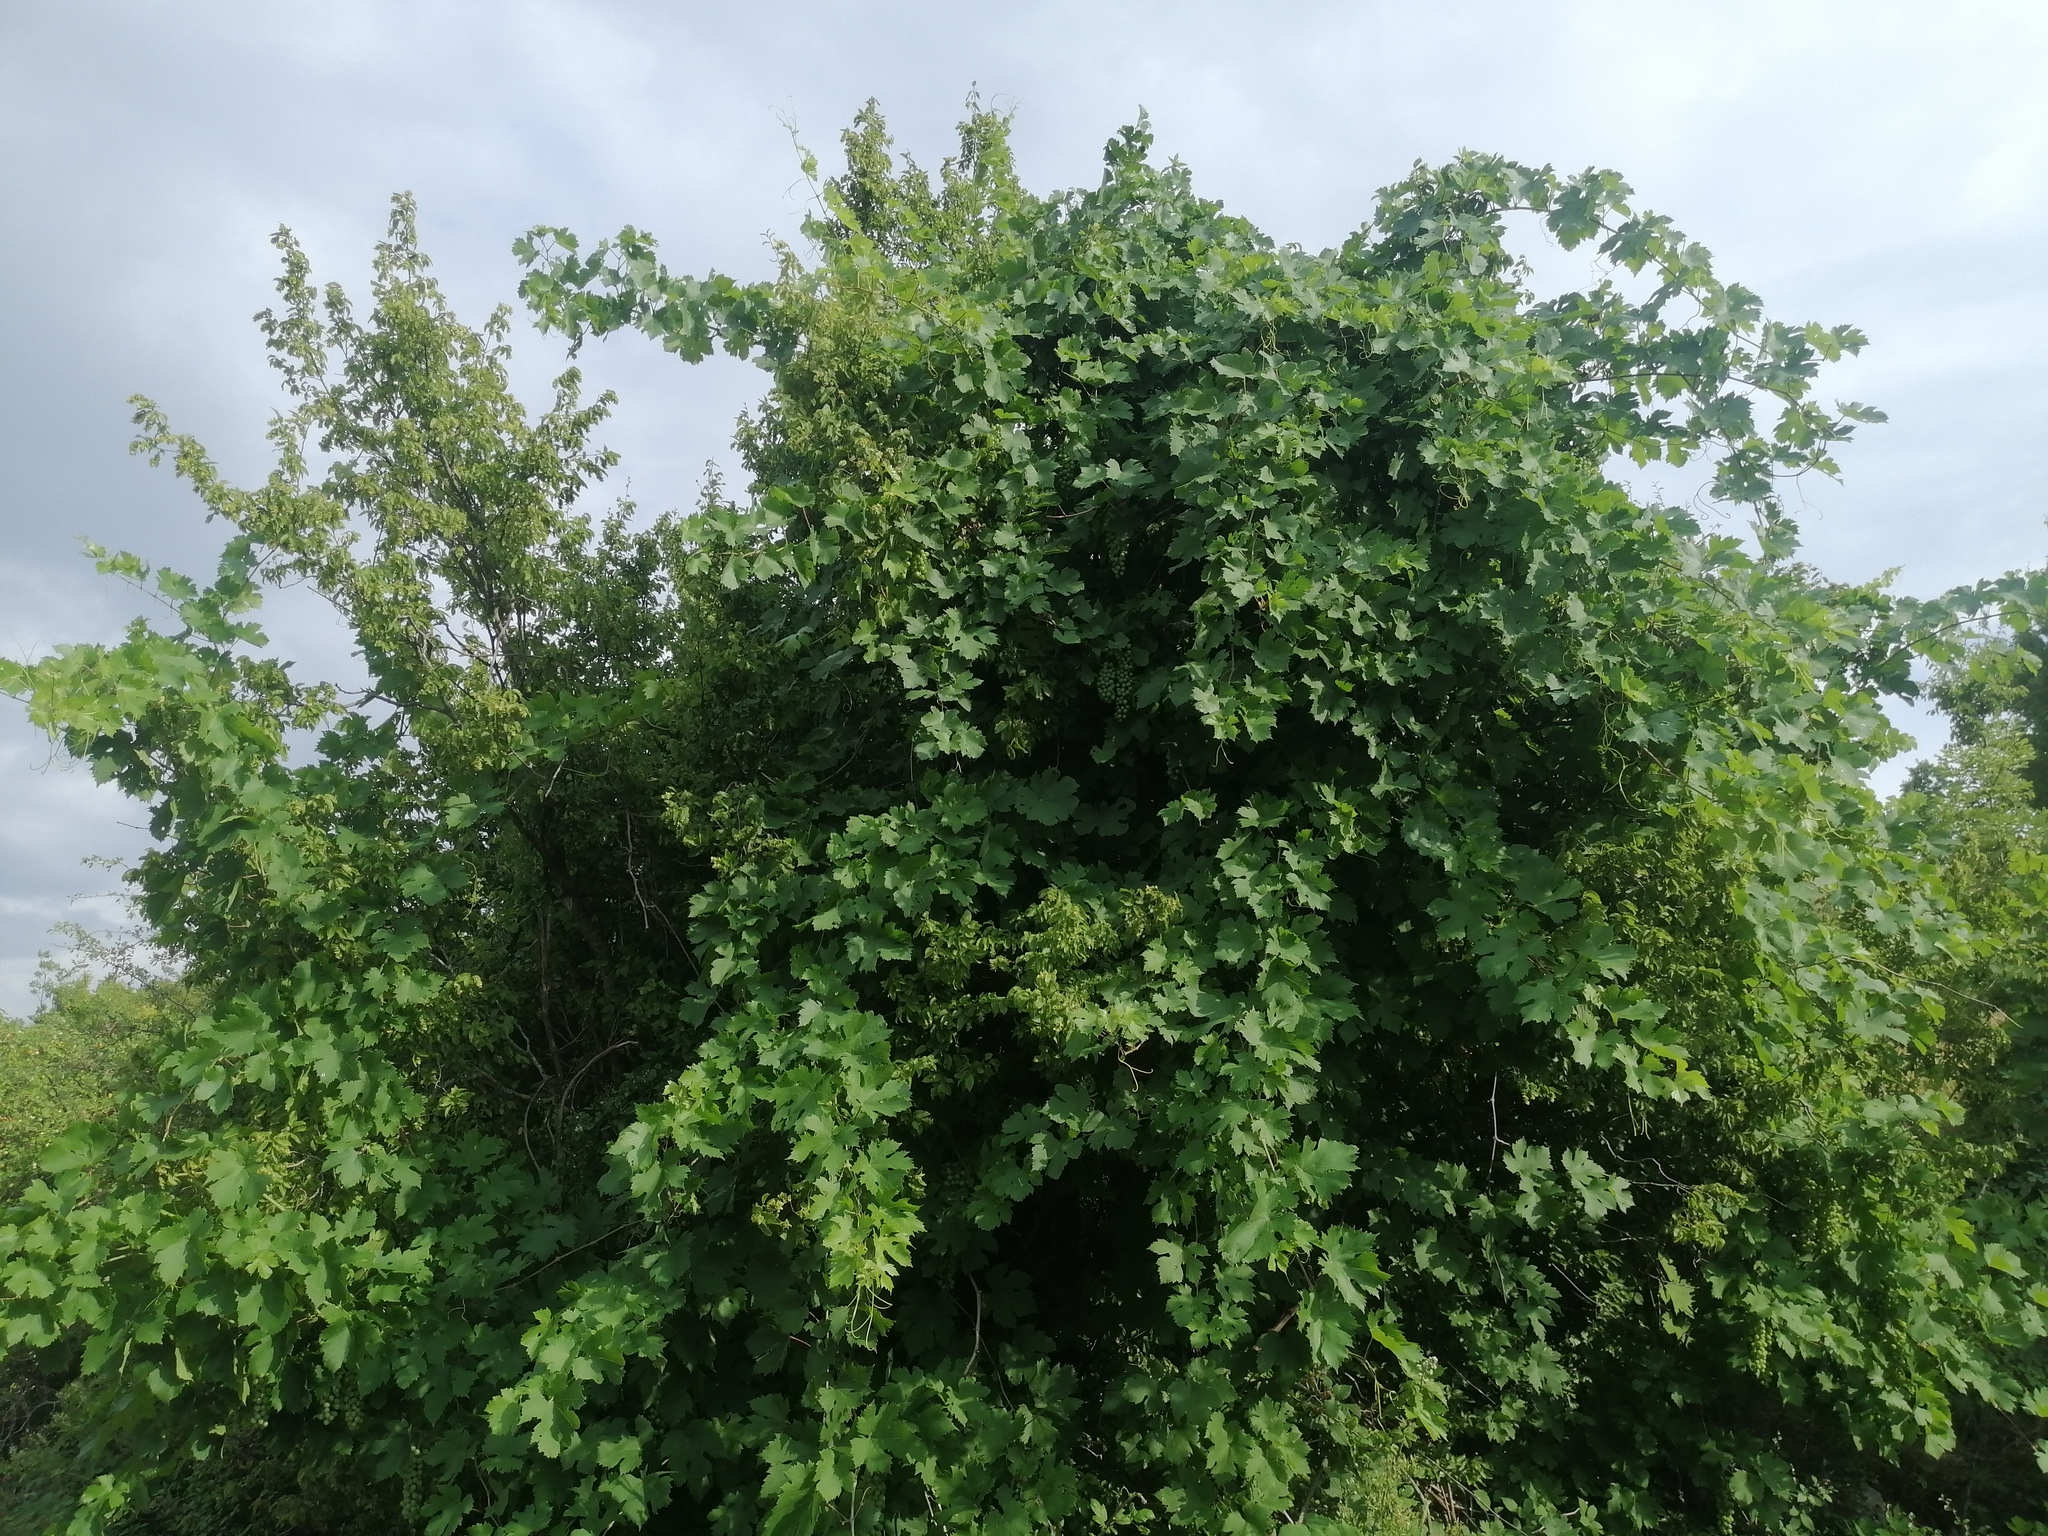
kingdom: Plantae
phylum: Tracheophyta
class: Magnoliopsida
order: Vitales
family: Vitaceae
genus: Vitis
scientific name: Vitis vinifera
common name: Grape-vine
